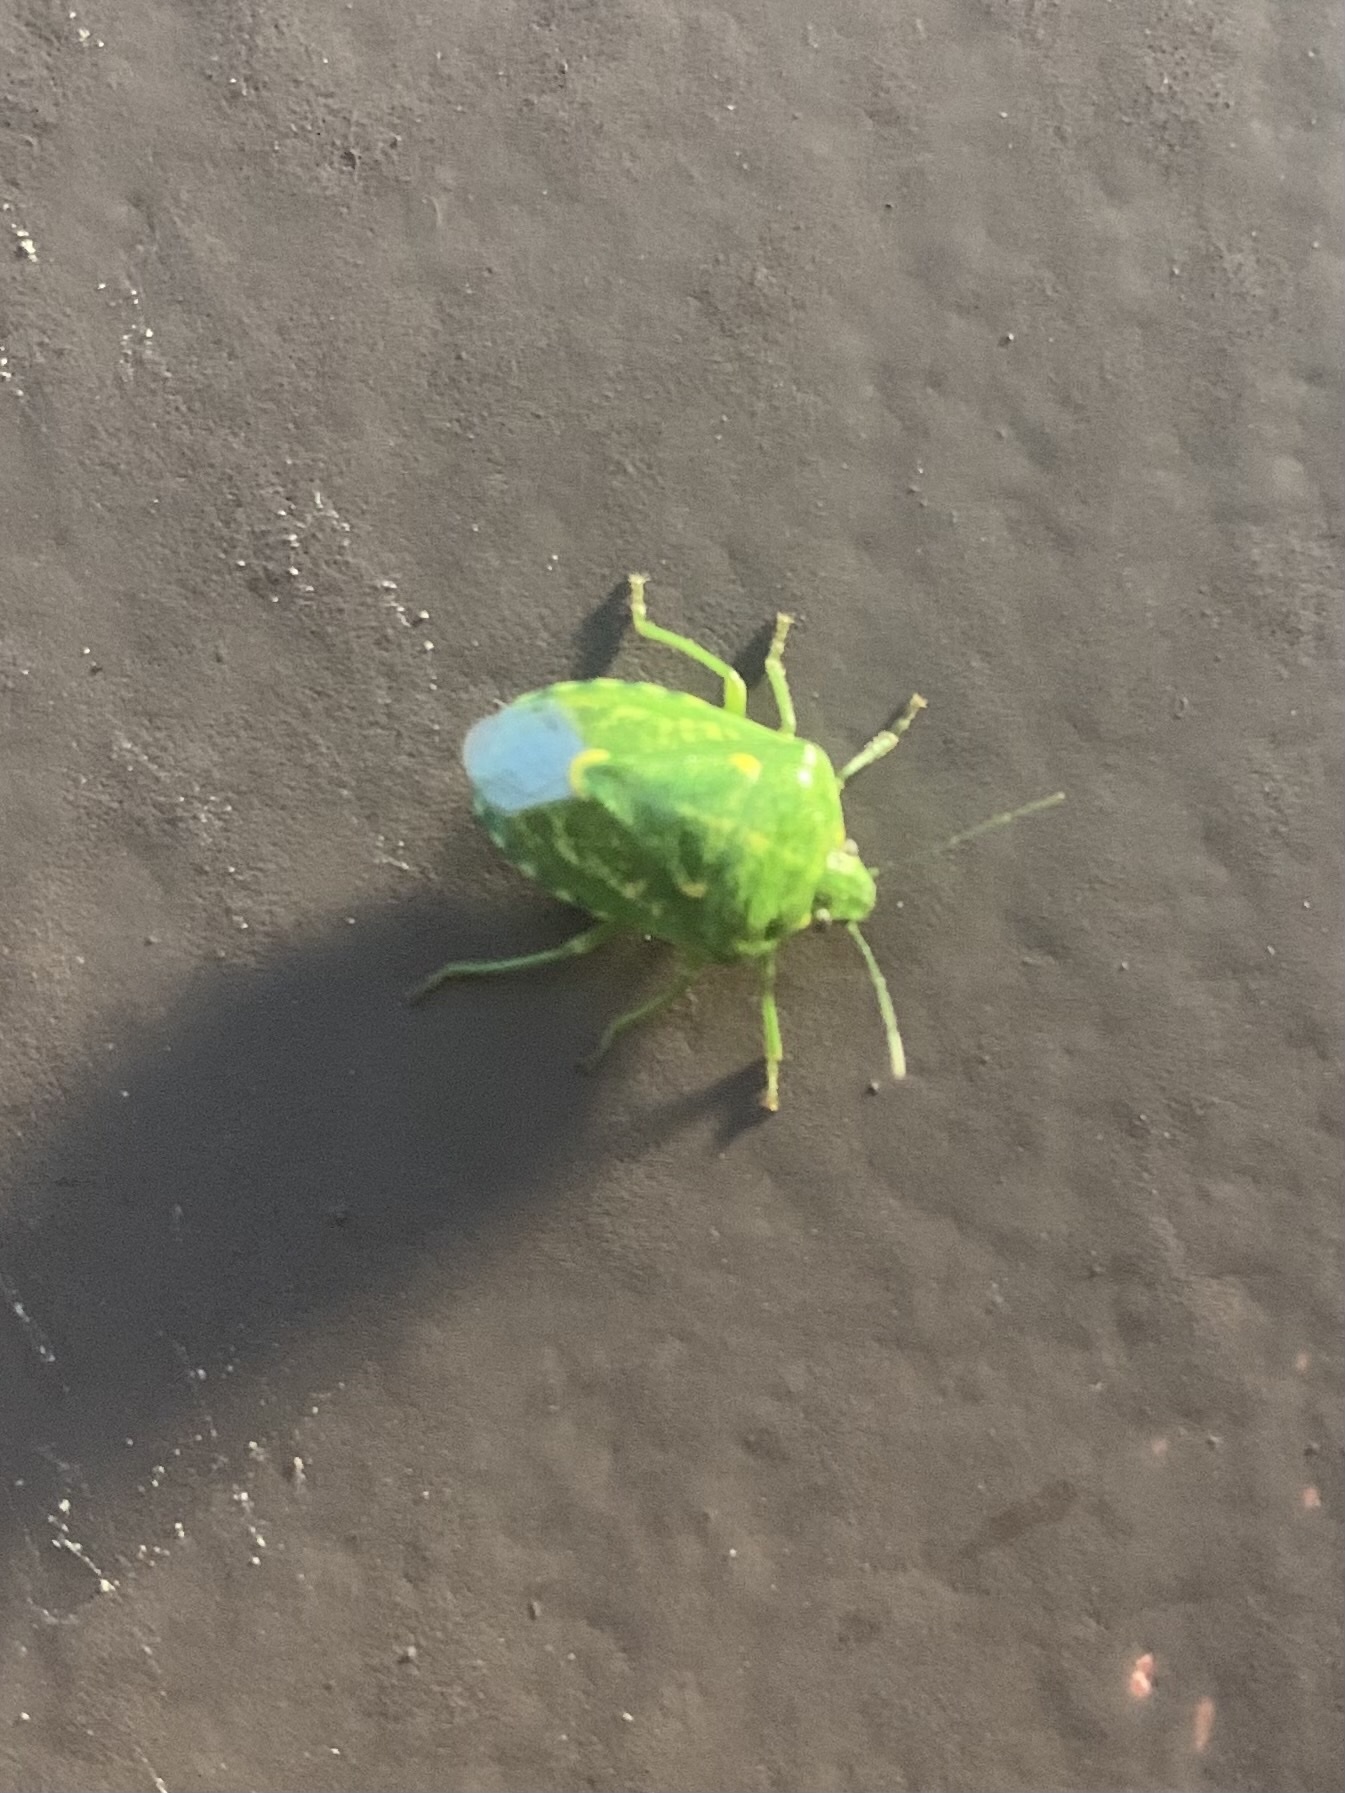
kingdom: Animalia
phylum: Arthropoda
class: Insecta
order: Hemiptera
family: Pentatomidae
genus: Banasa
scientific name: Banasa euchlora
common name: Cedar berry bug
